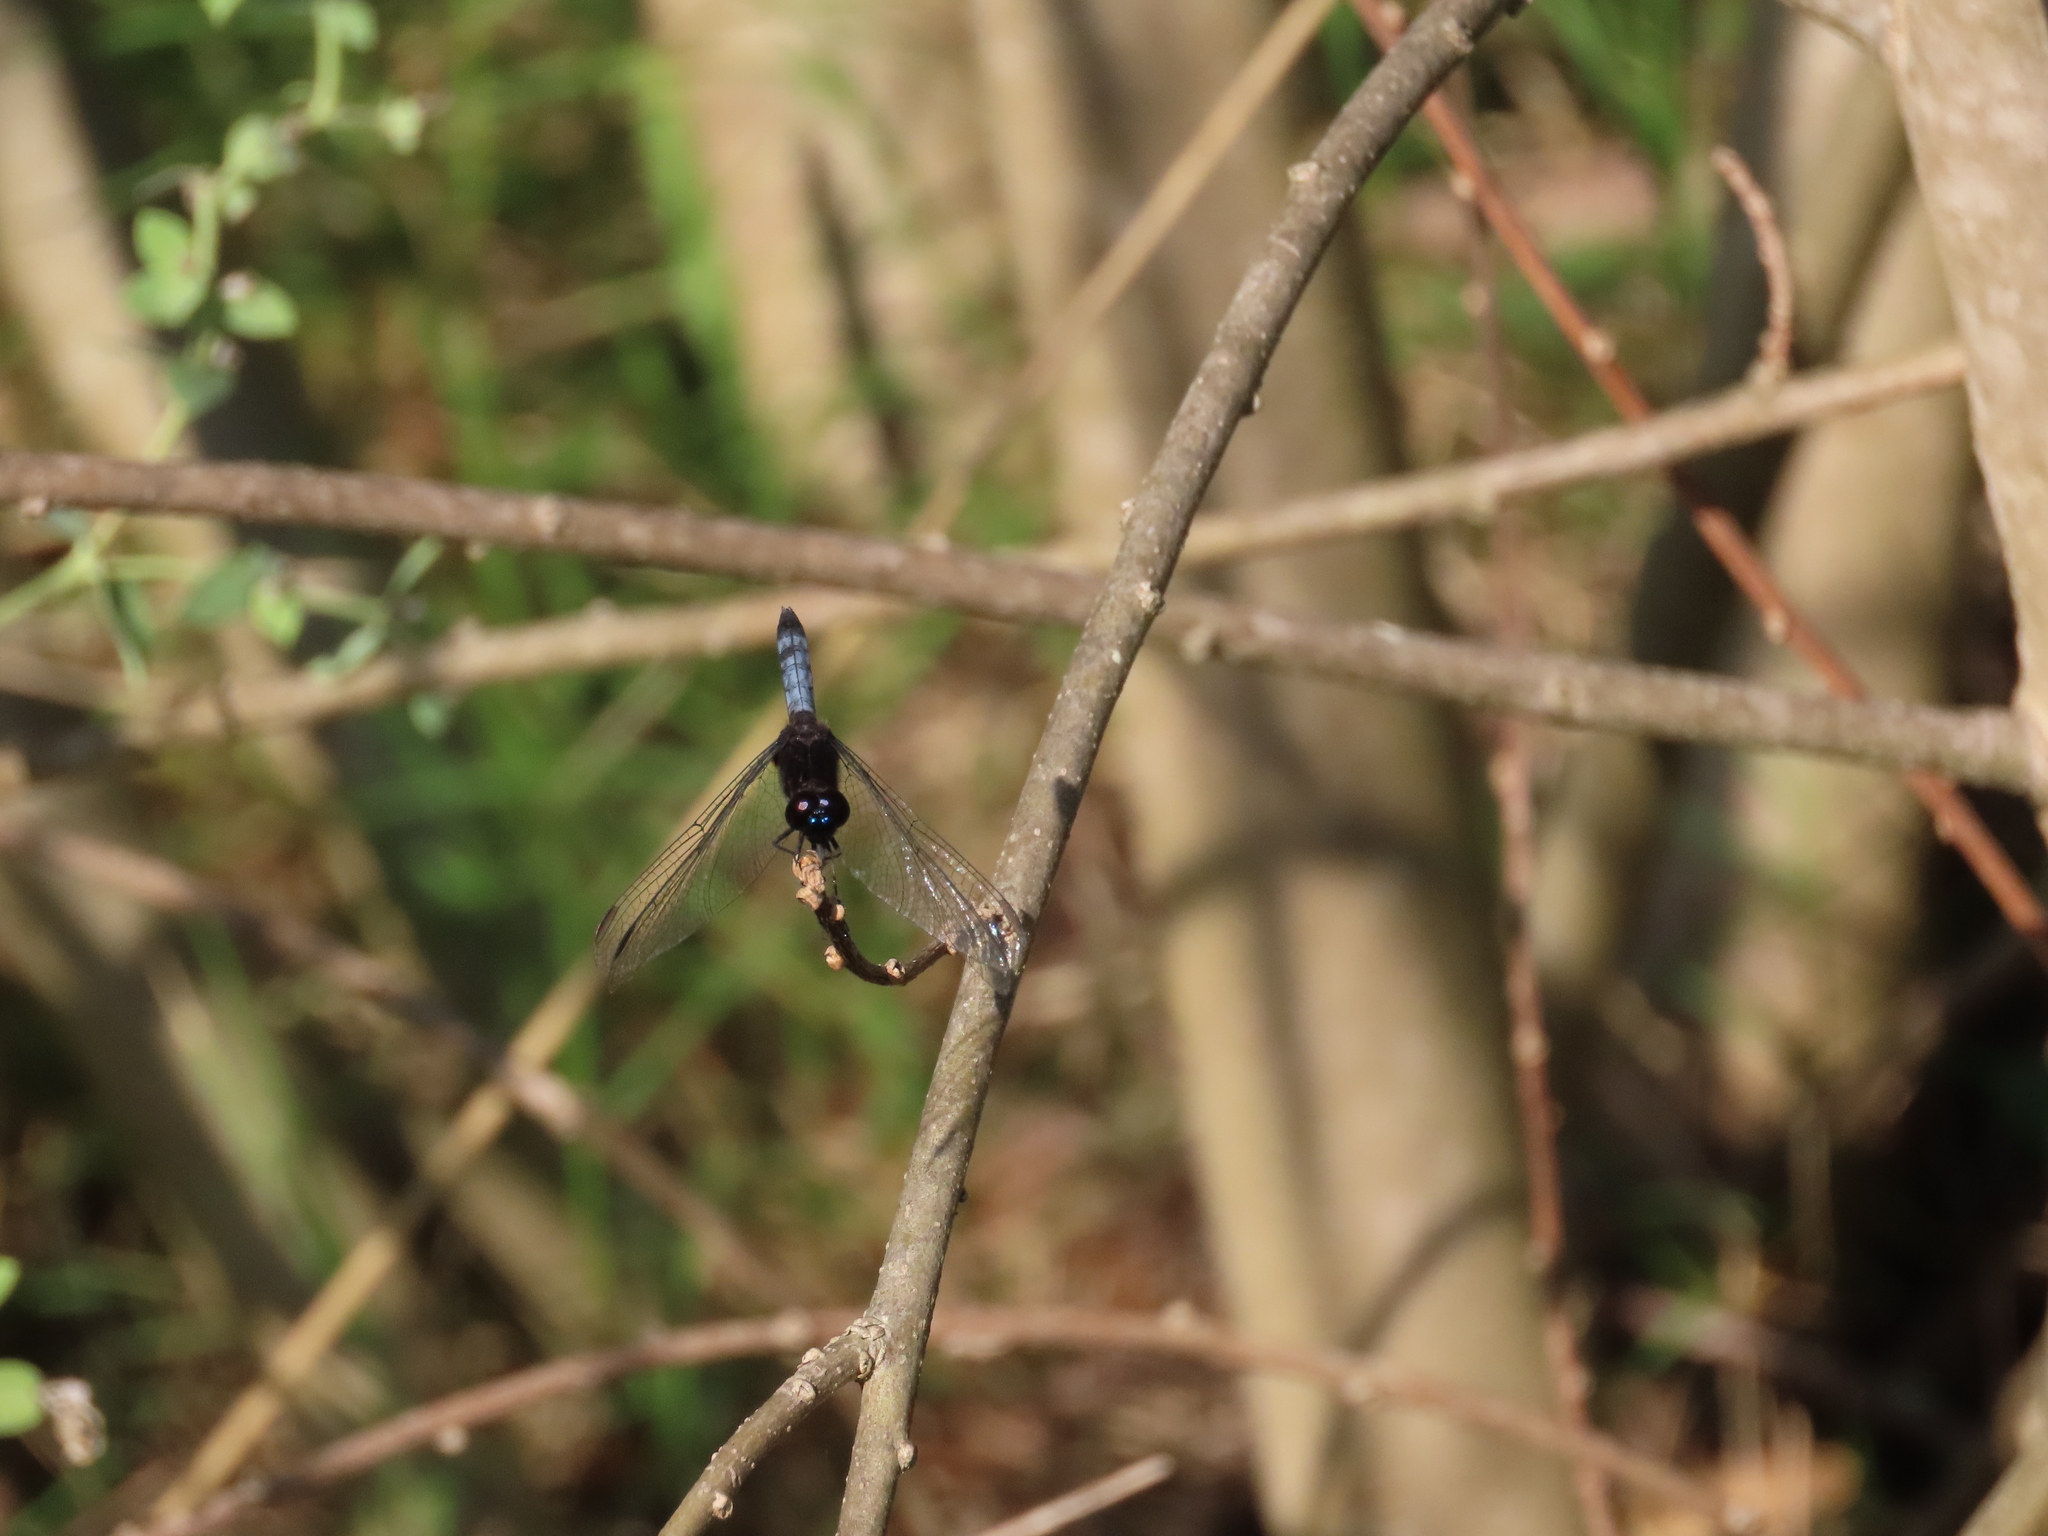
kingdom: Animalia
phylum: Arthropoda
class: Insecta
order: Odonata
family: Libellulidae
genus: Erythrodiplax
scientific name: Erythrodiplax media
